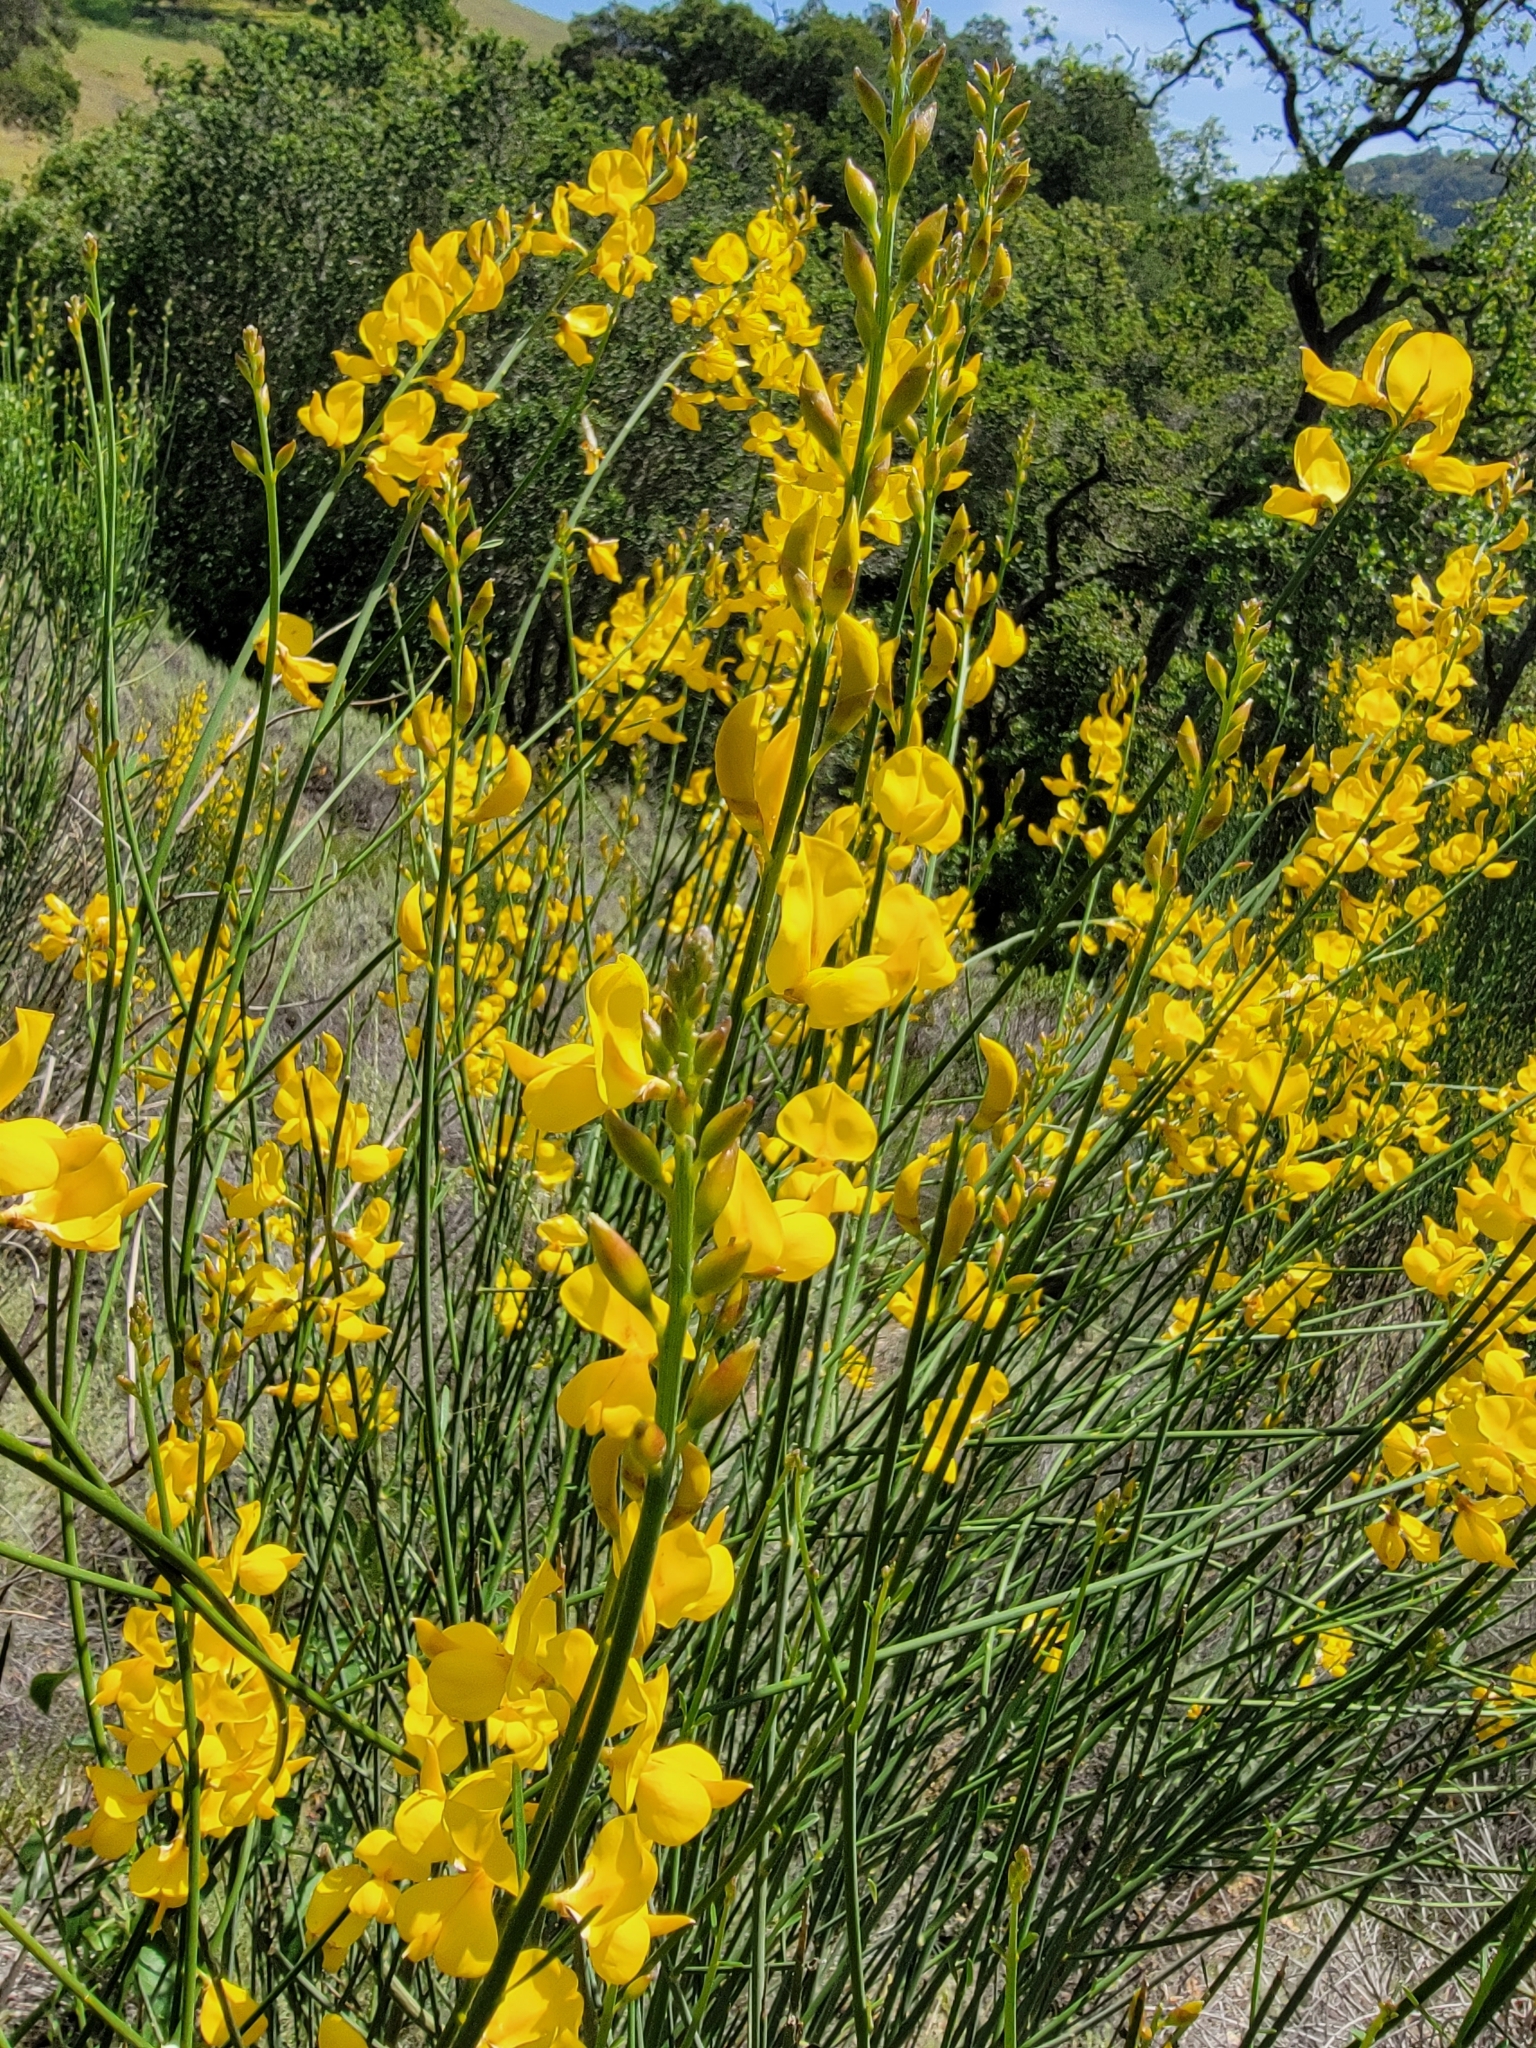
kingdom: Plantae
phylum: Tracheophyta
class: Magnoliopsida
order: Fabales
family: Fabaceae
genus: Spartium
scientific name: Spartium junceum
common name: Spanish broom
